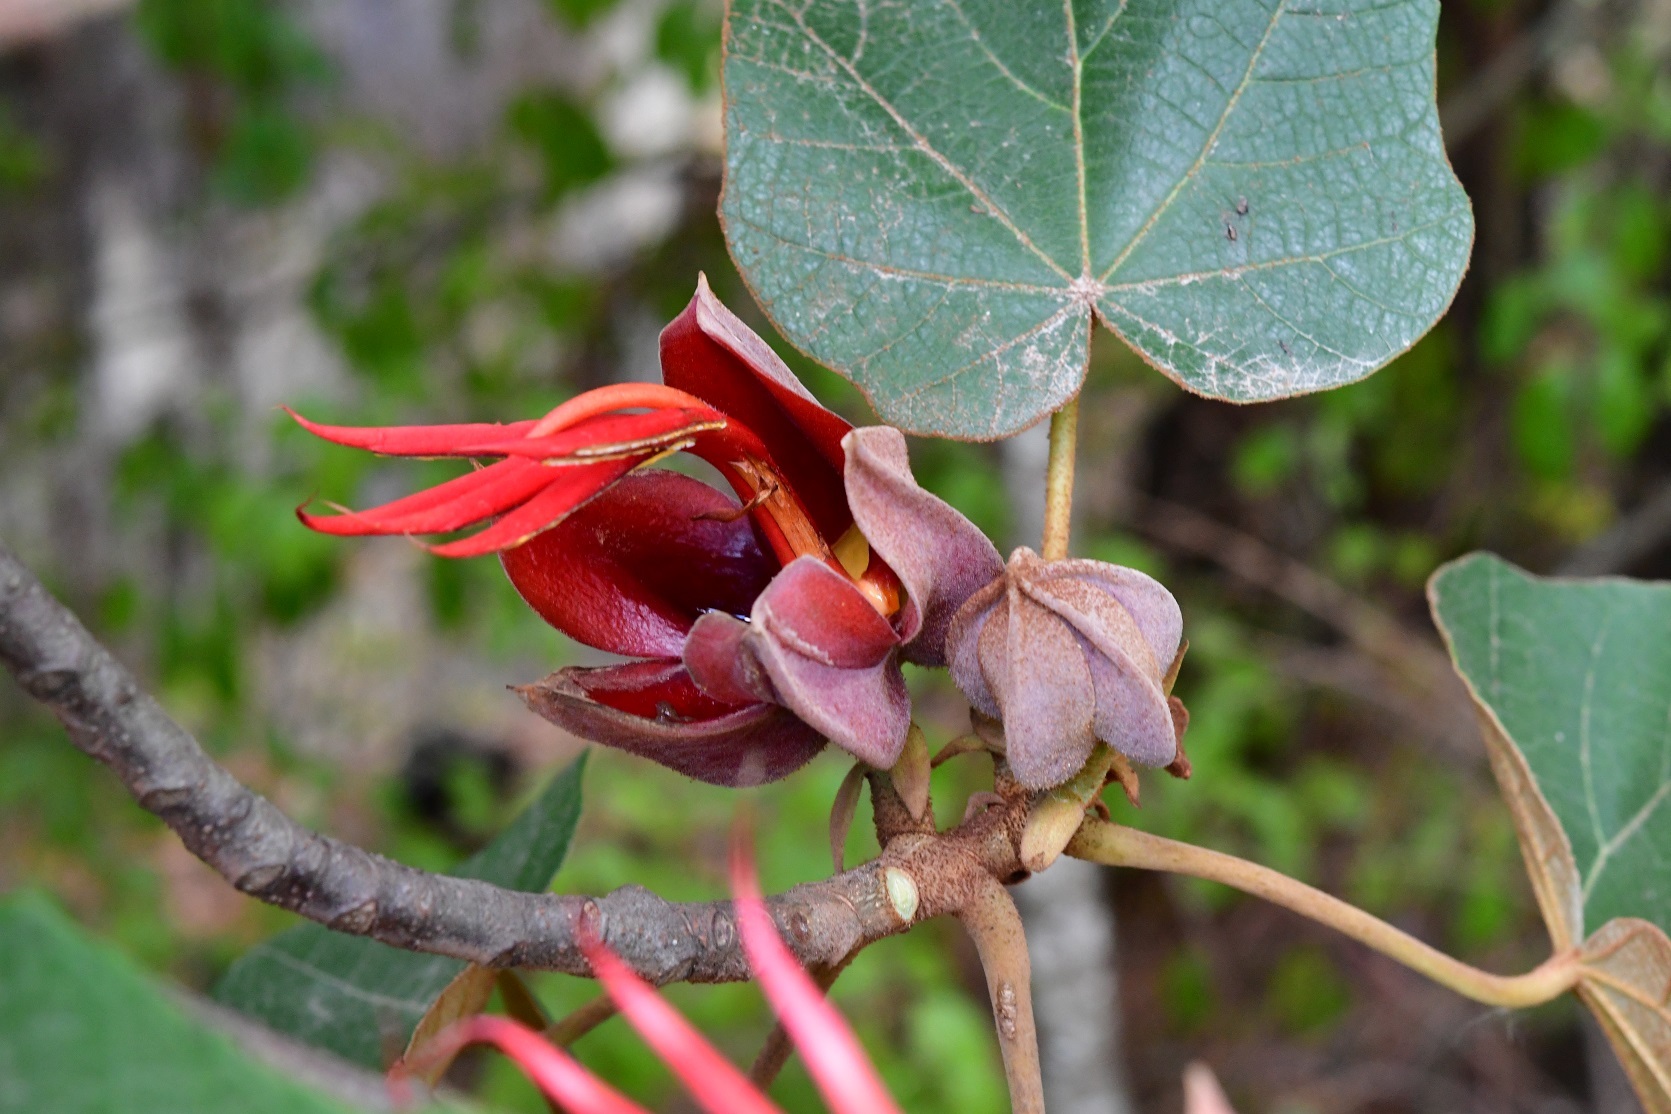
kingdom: Plantae
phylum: Tracheophyta
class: Magnoliopsida
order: Malvales
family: Malvaceae
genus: Chiranthodendron
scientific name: Chiranthodendron pentadactylon
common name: Mexican-hat-plant
